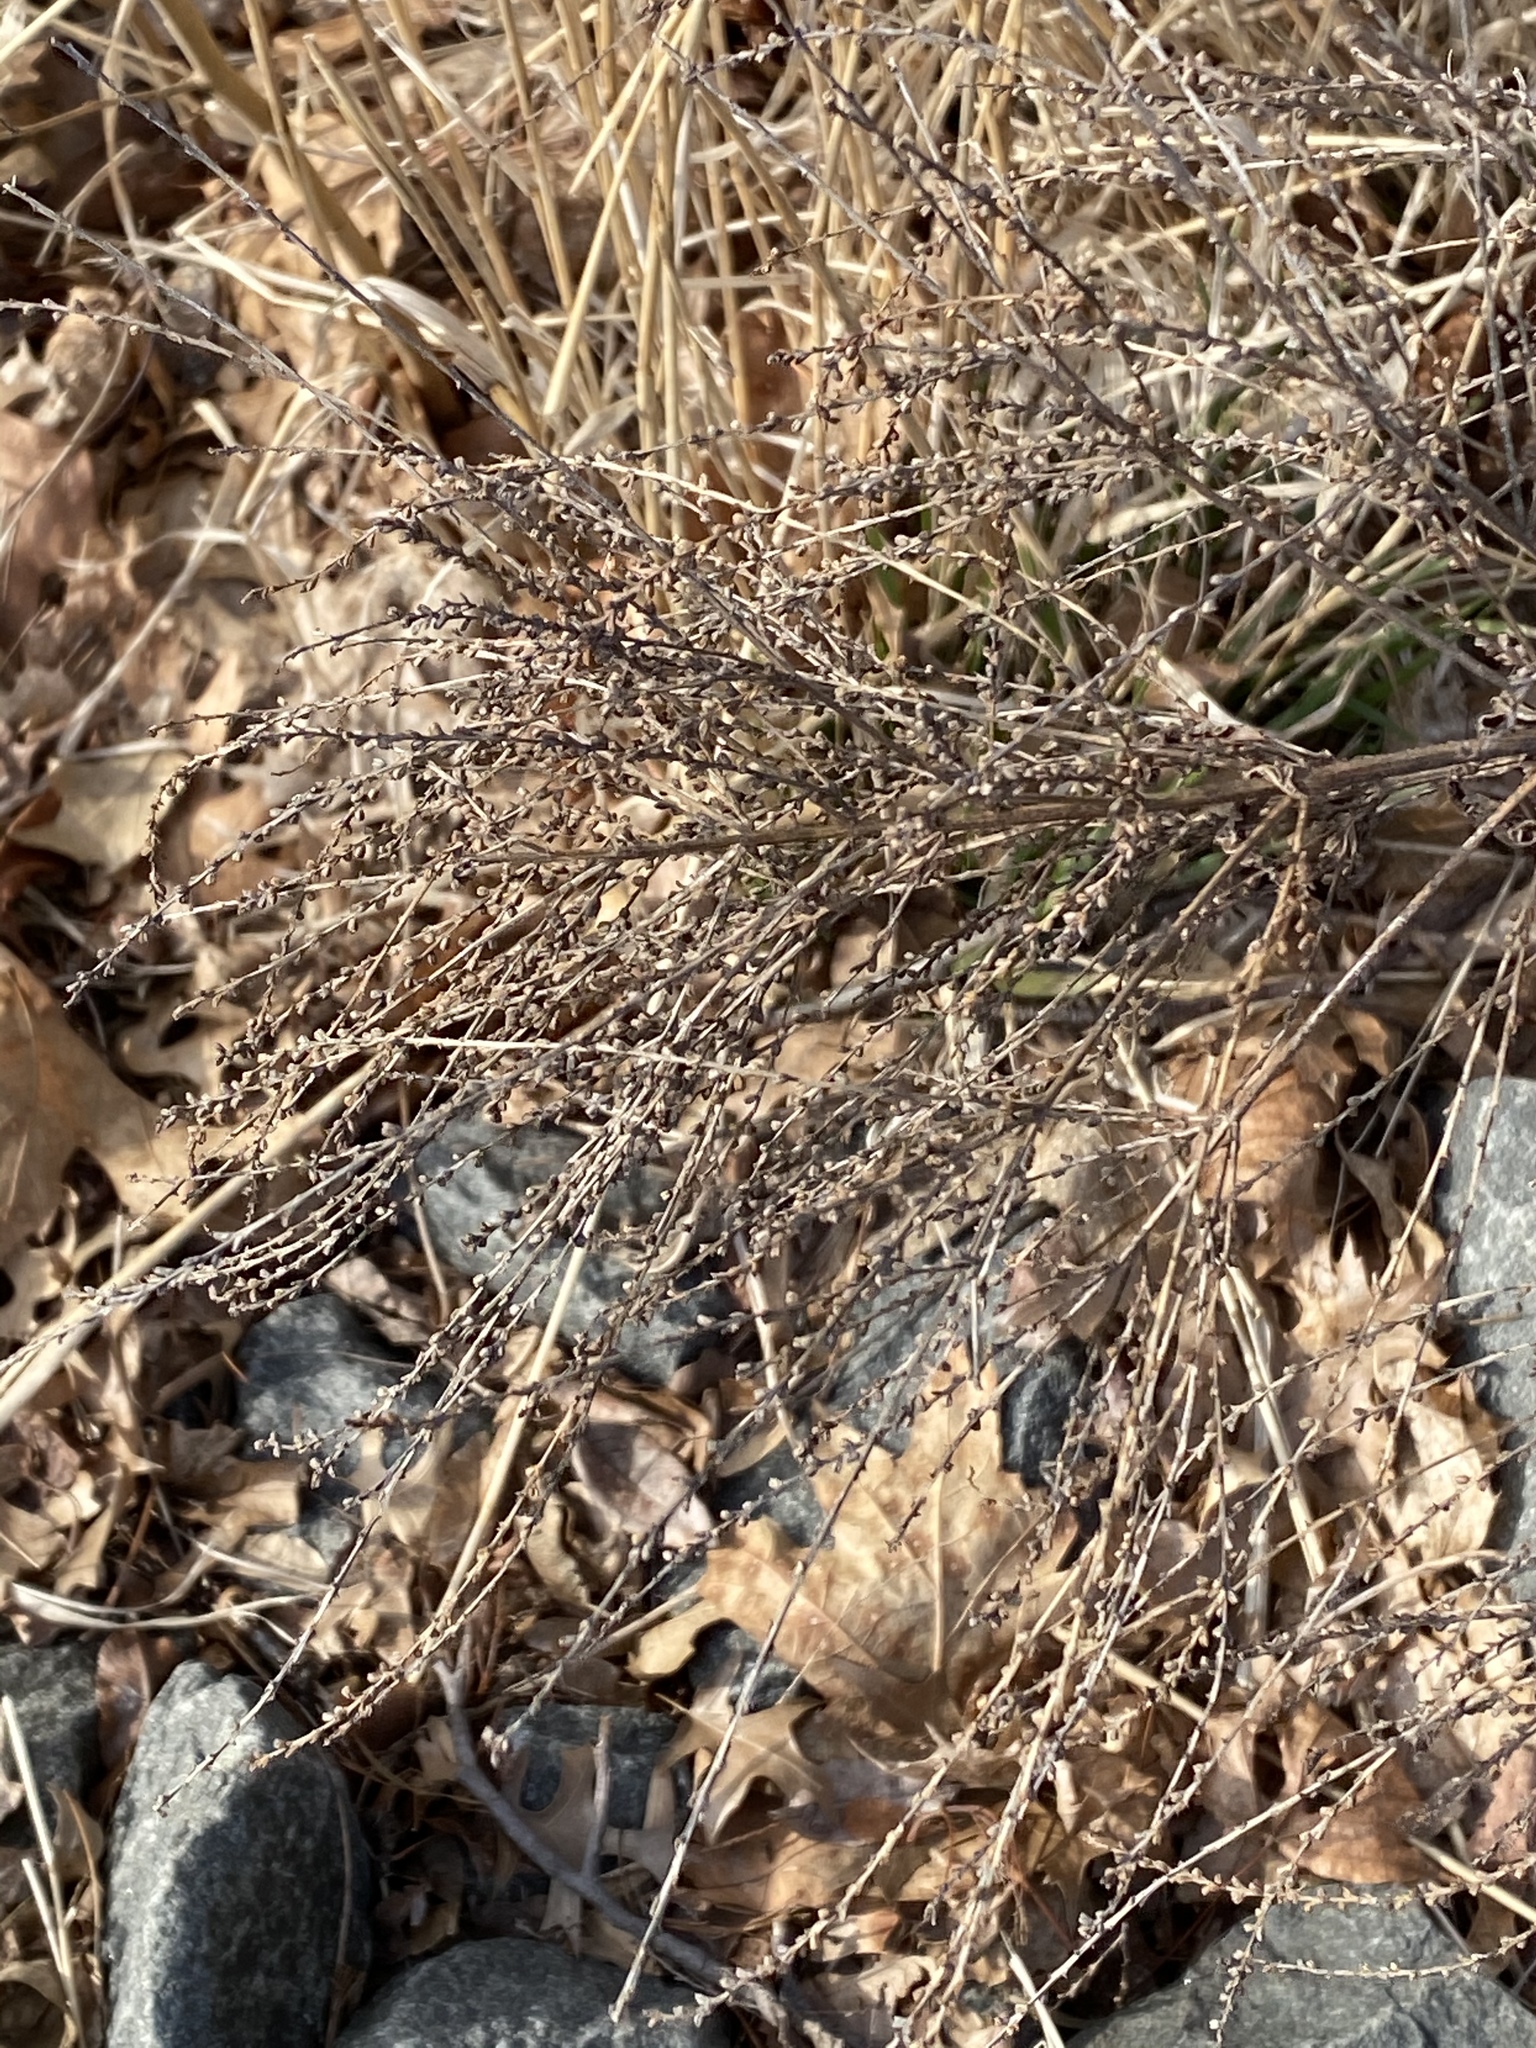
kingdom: Plantae
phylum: Tracheophyta
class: Magnoliopsida
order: Lamiales
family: Verbenaceae
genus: Verbena
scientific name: Verbena urticifolia
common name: Nettle-leaved vervain
